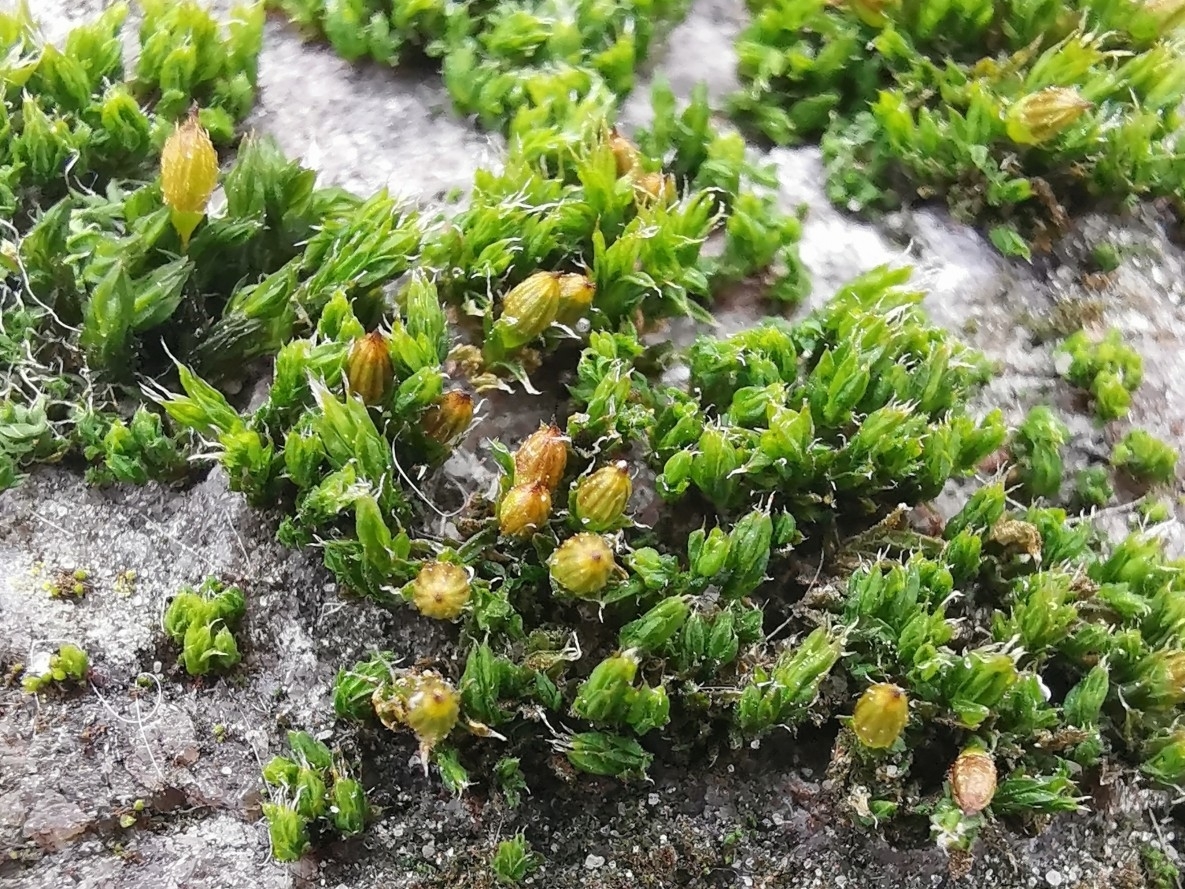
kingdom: Plantae
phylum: Bryophyta
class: Bryopsida
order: Orthotrichales
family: Orthotrichaceae
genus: Orthotrichum
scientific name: Orthotrichum diaphanum
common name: White-tipped bristle-moss
